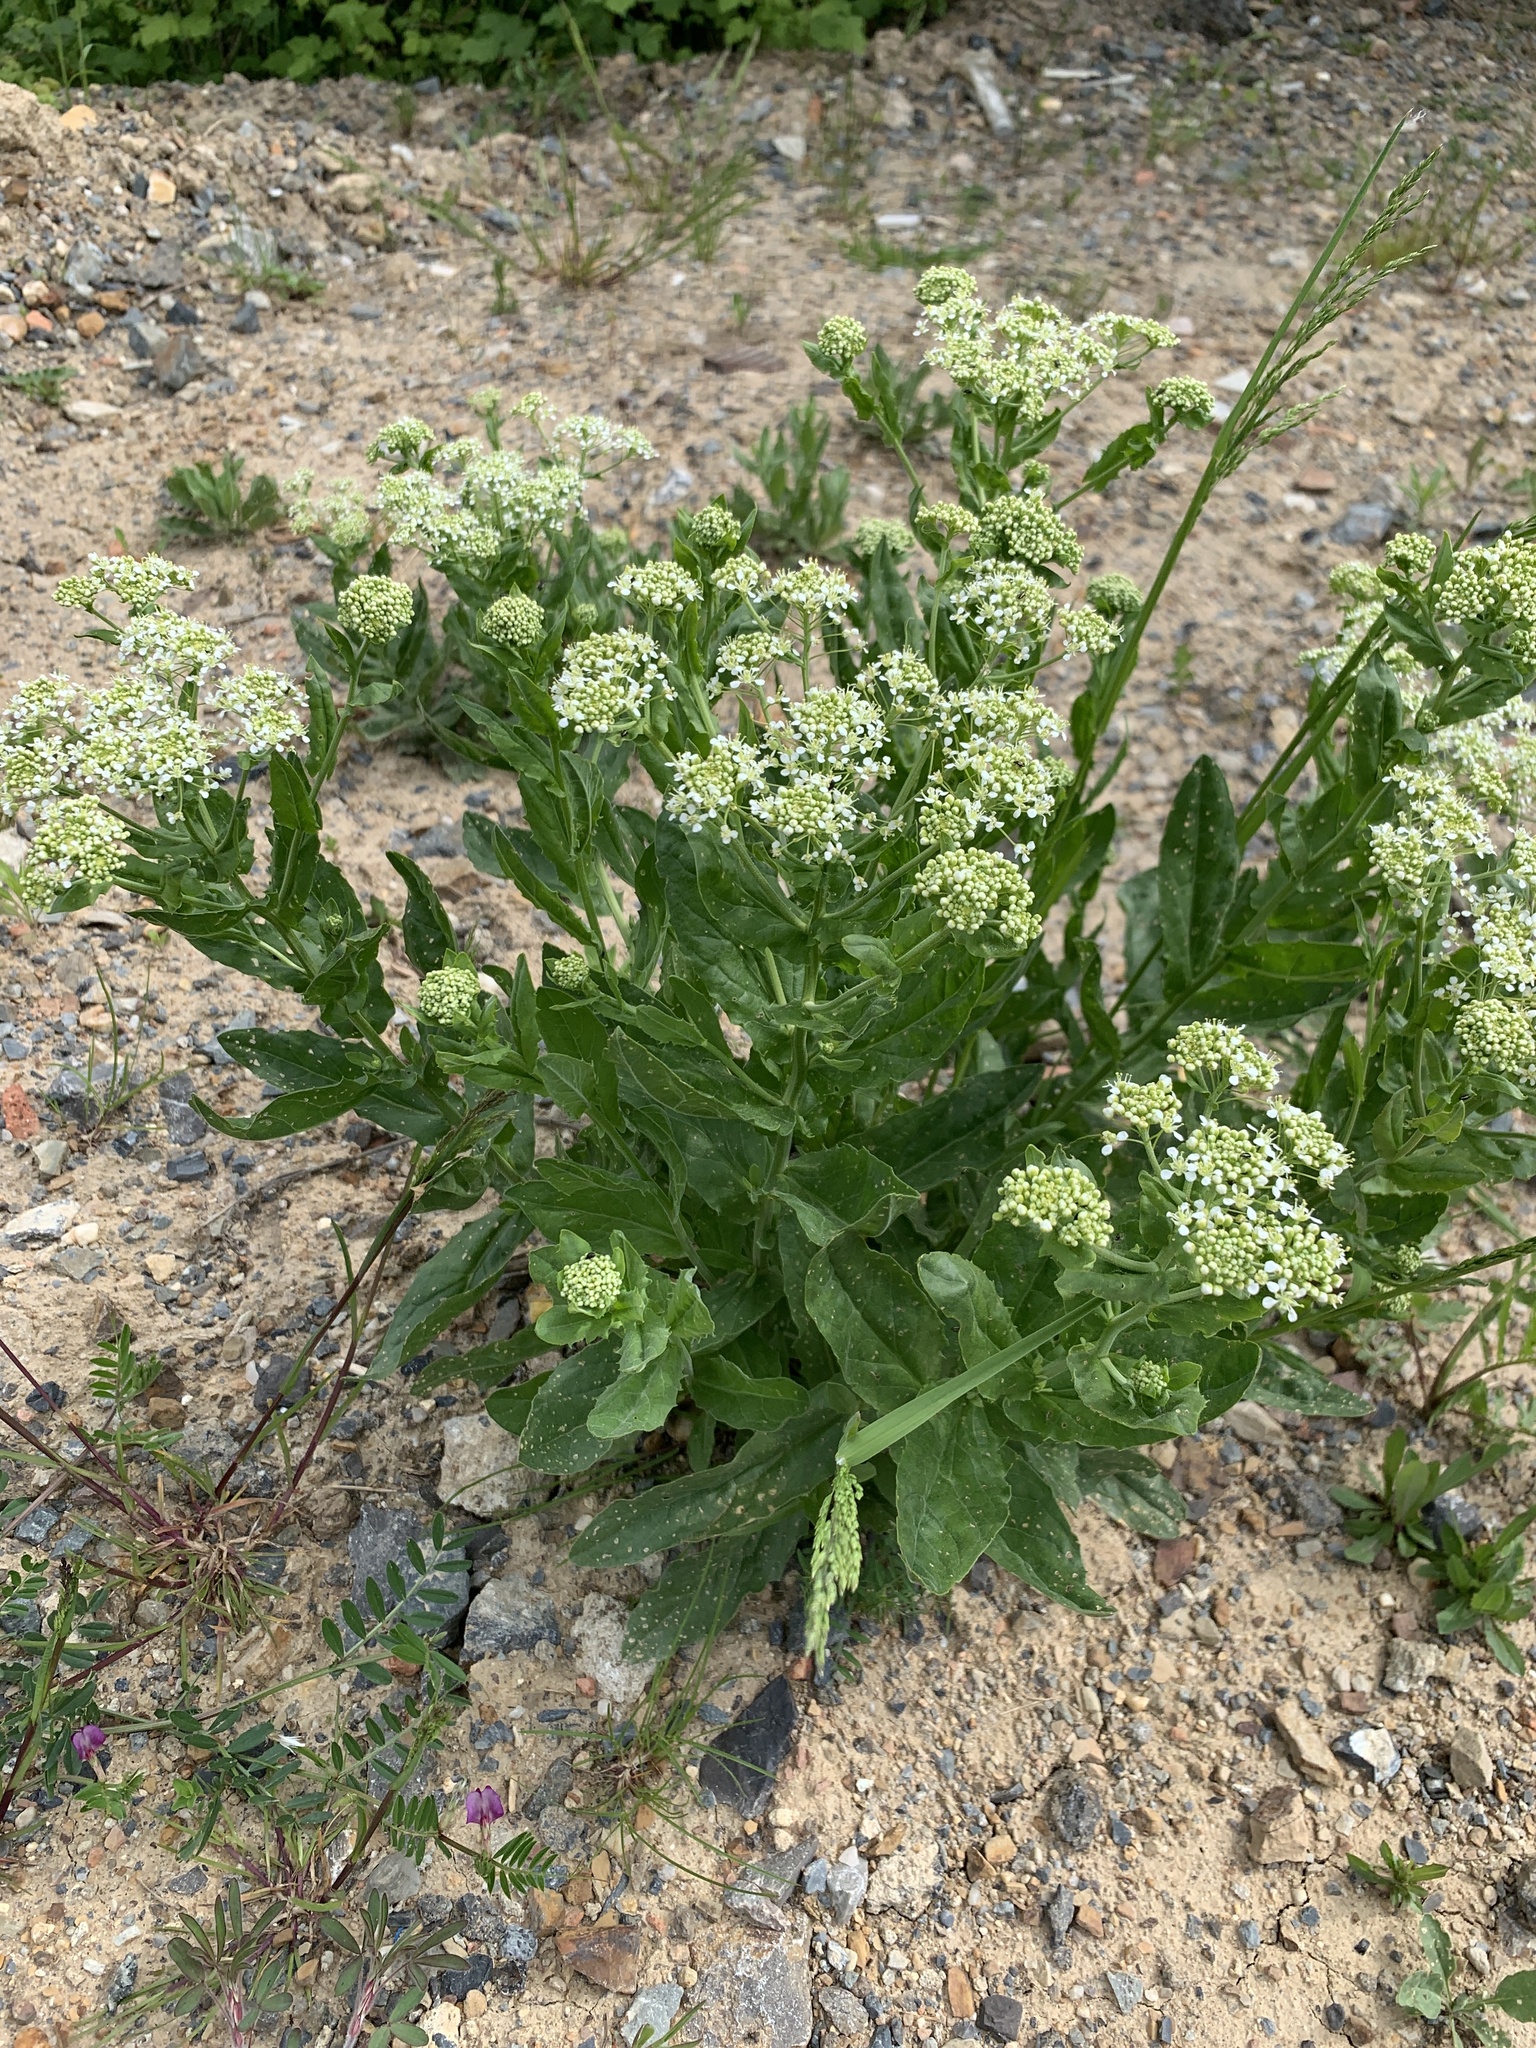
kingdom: Plantae
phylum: Tracheophyta
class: Magnoliopsida
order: Brassicales
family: Brassicaceae
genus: Lepidium
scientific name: Lepidium draba
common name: Hoary cress
